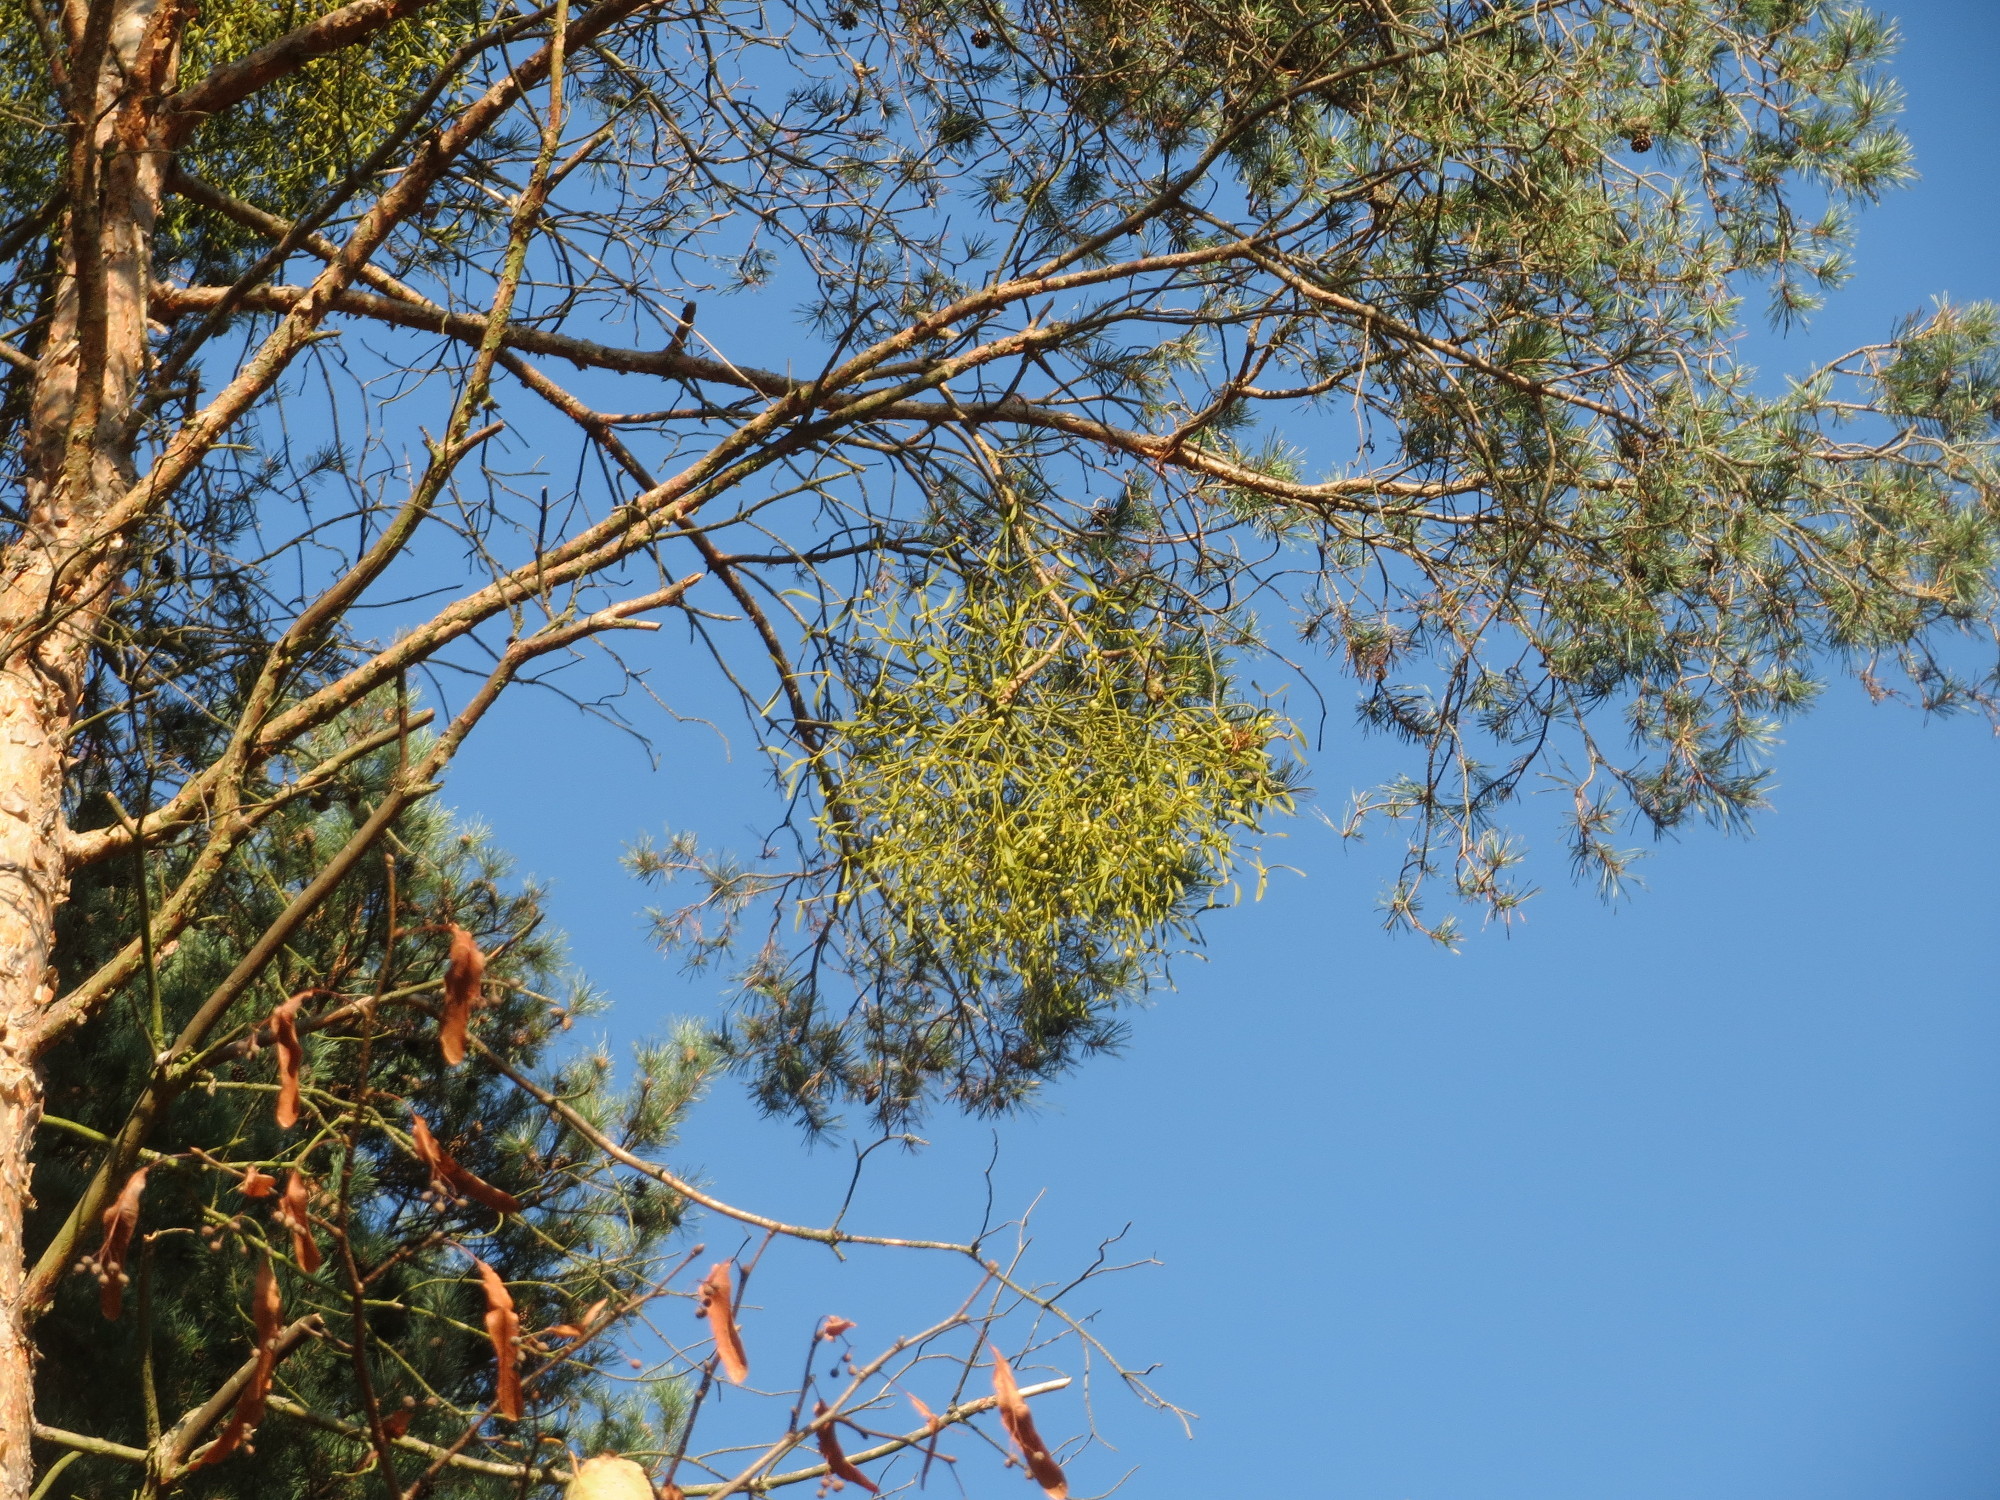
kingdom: Plantae
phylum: Tracheophyta
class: Magnoliopsida
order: Santalales
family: Viscaceae
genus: Viscum
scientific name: Viscum laxum
